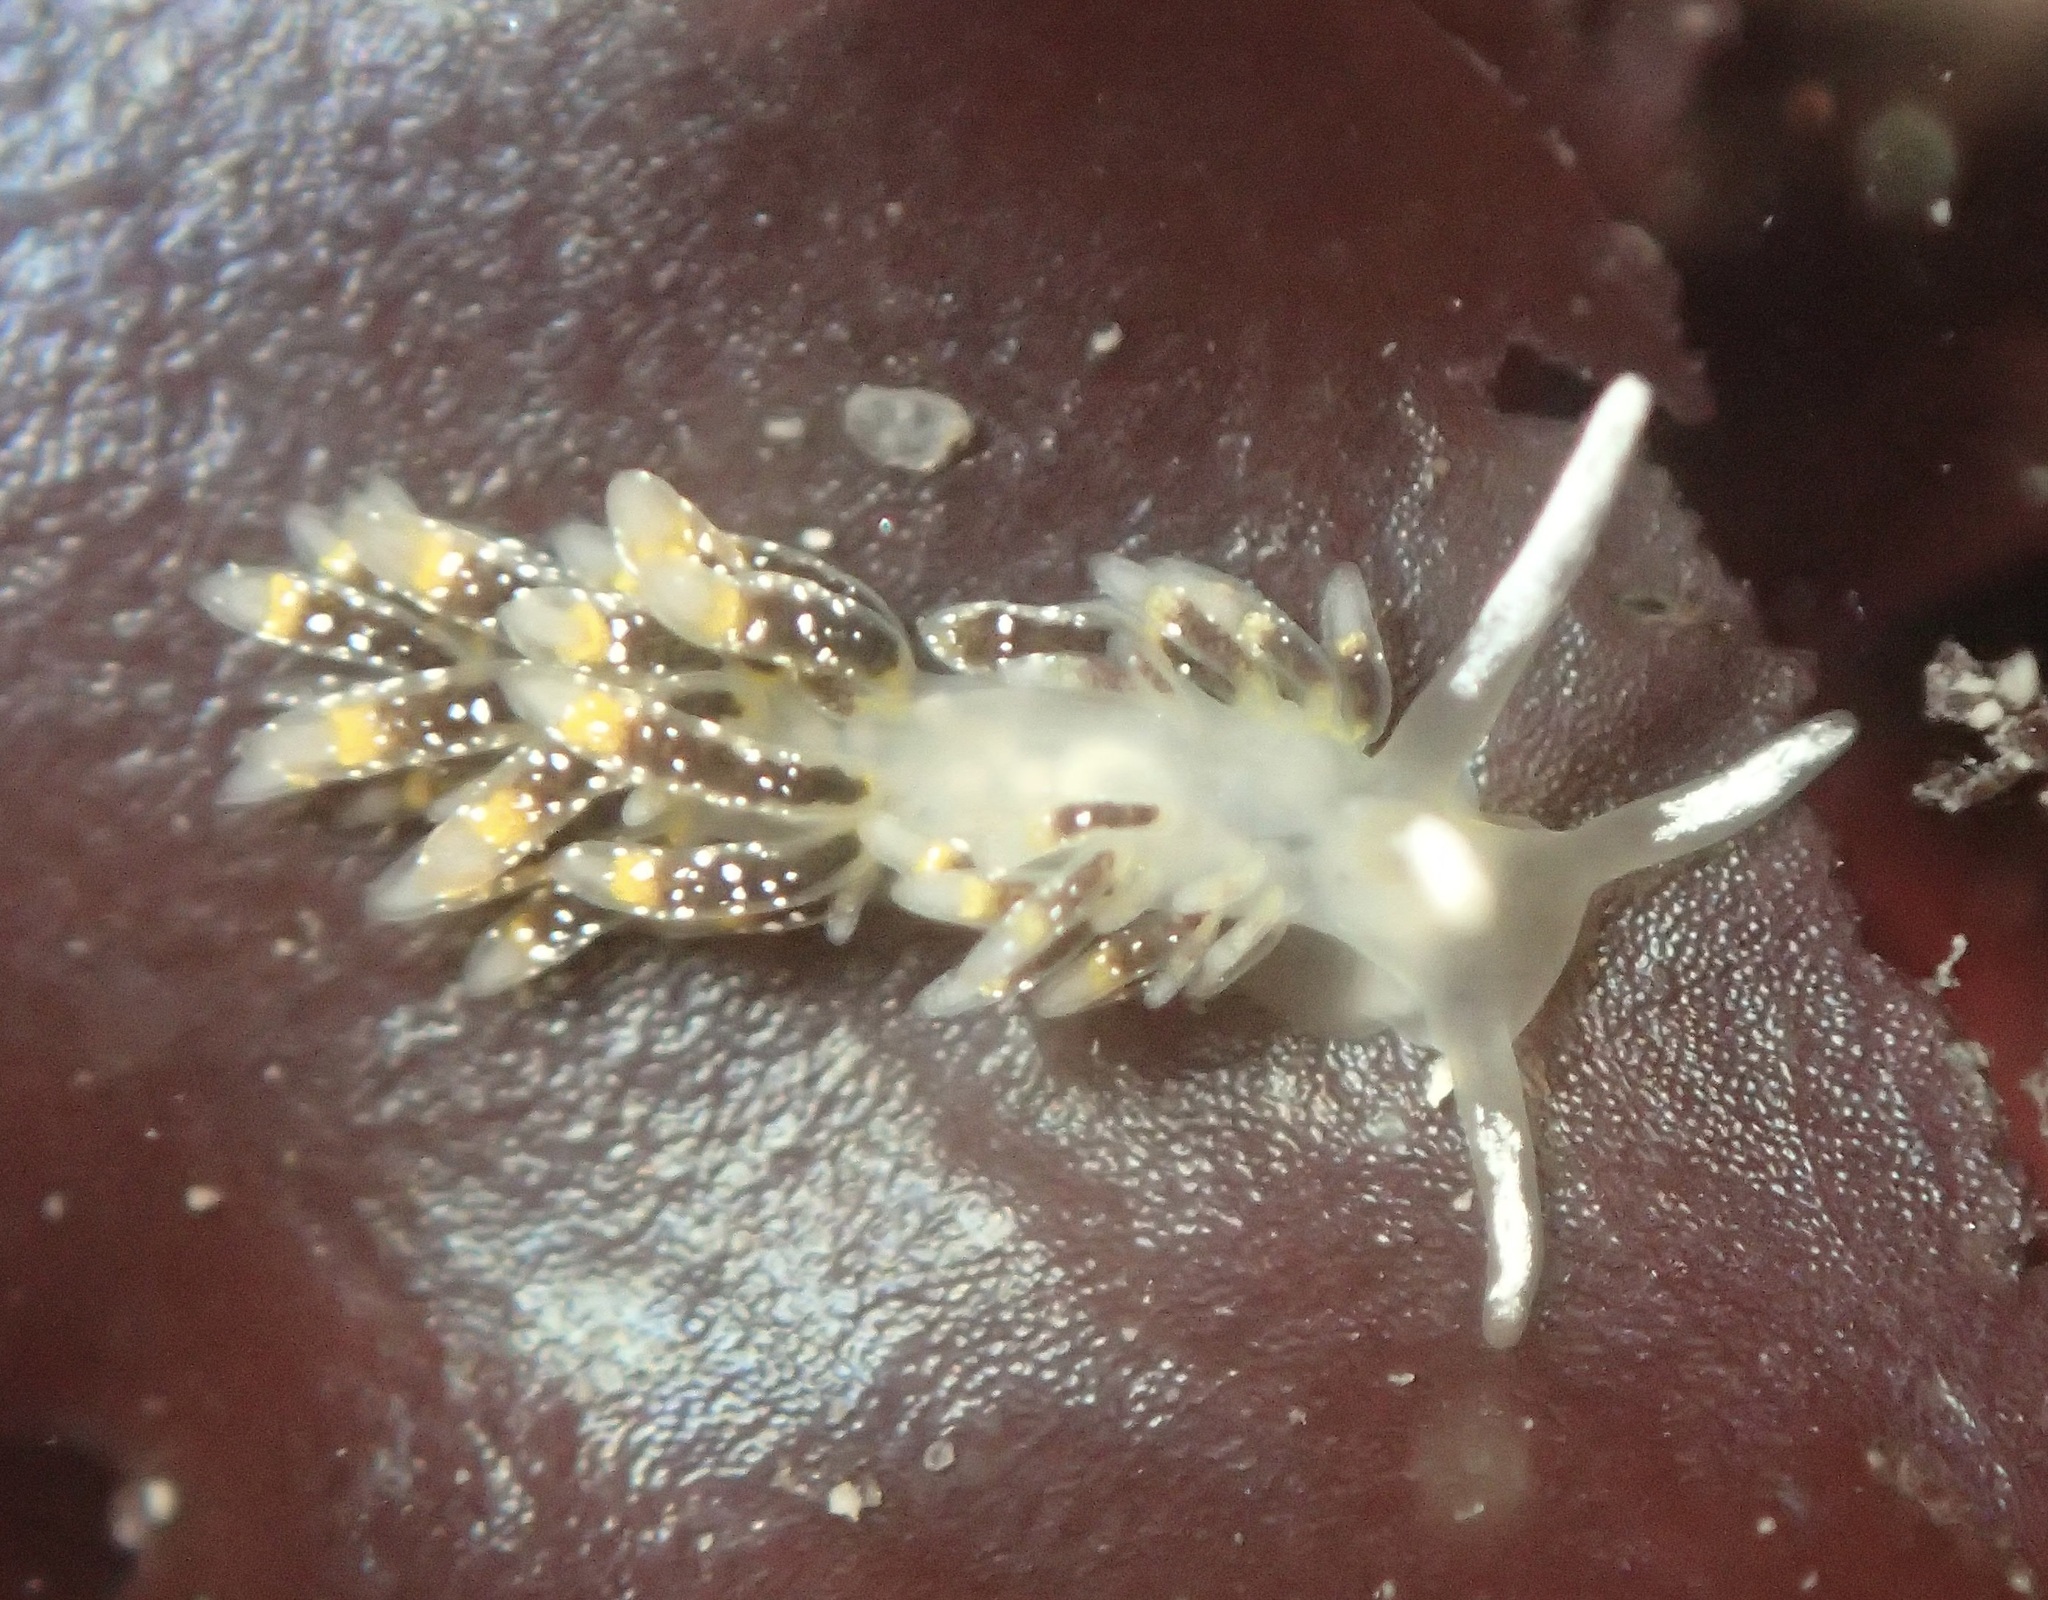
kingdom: Animalia
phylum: Mollusca
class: Gastropoda
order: Nudibranchia
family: Trinchesiidae
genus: Zelentia
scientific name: Zelentia fulgens
